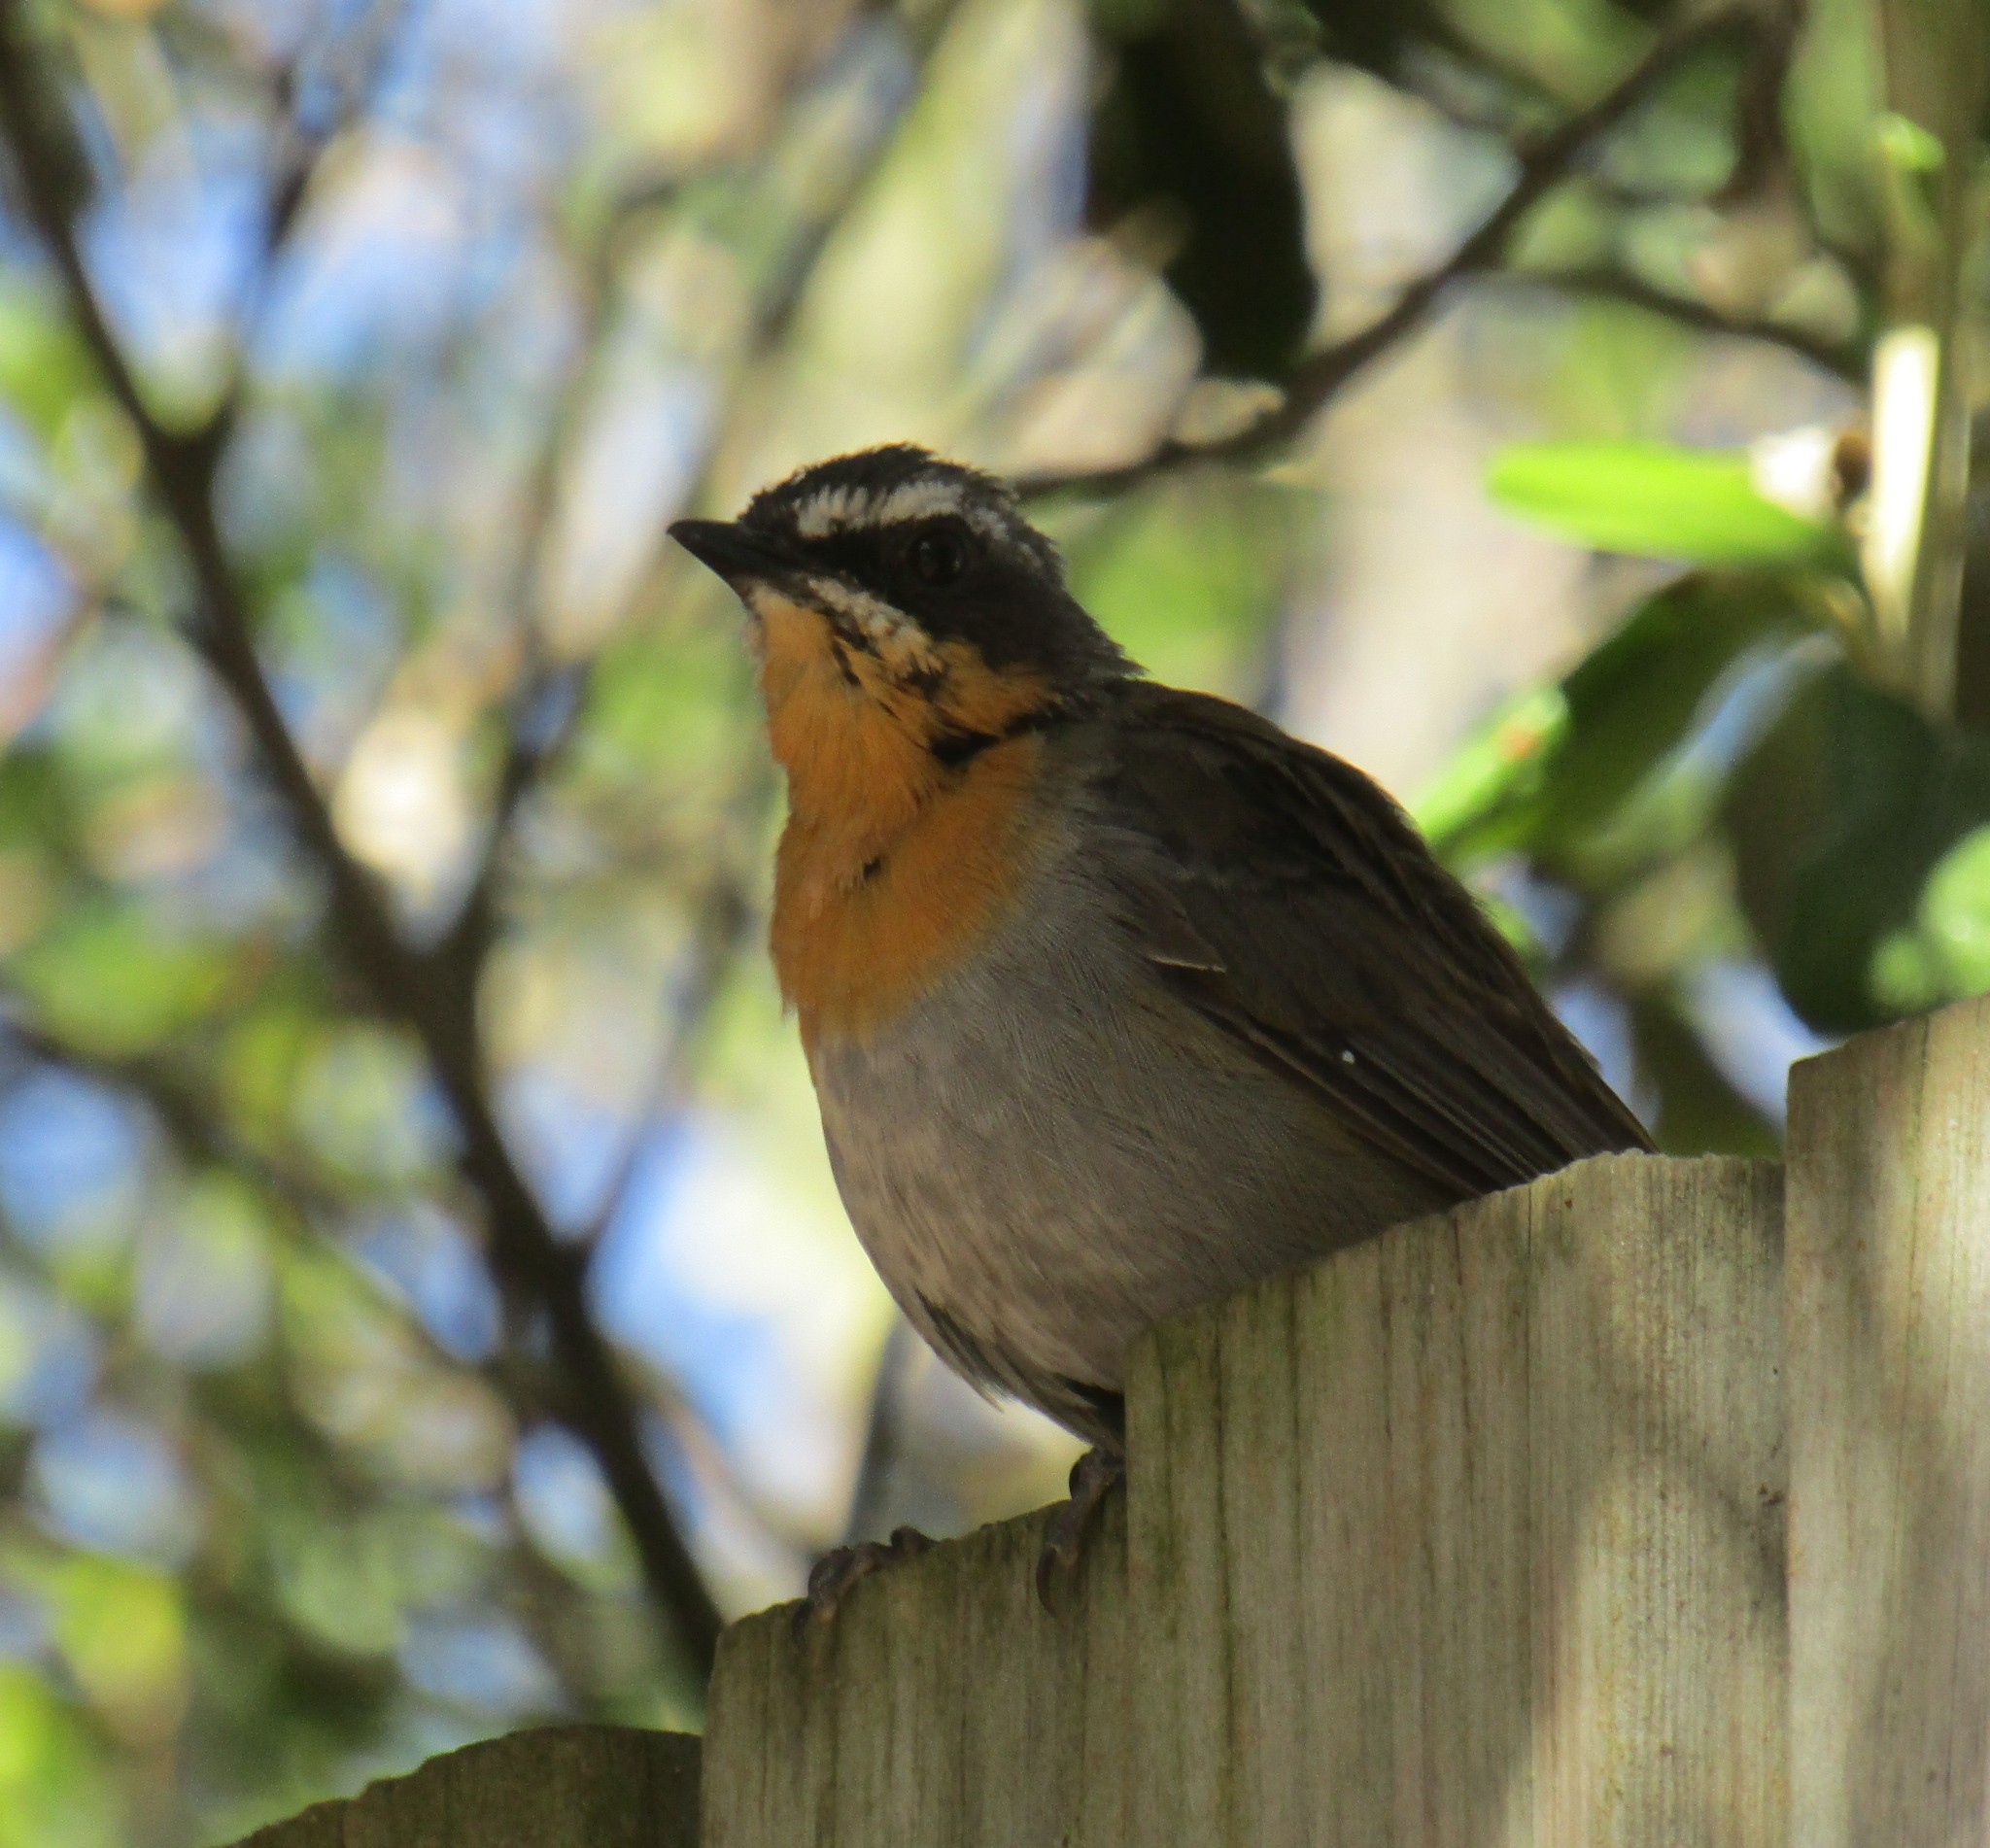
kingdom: Animalia
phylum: Chordata
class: Aves
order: Passeriformes
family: Muscicapidae
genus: Cossypha
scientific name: Cossypha caffra
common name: Cape robin-chat
